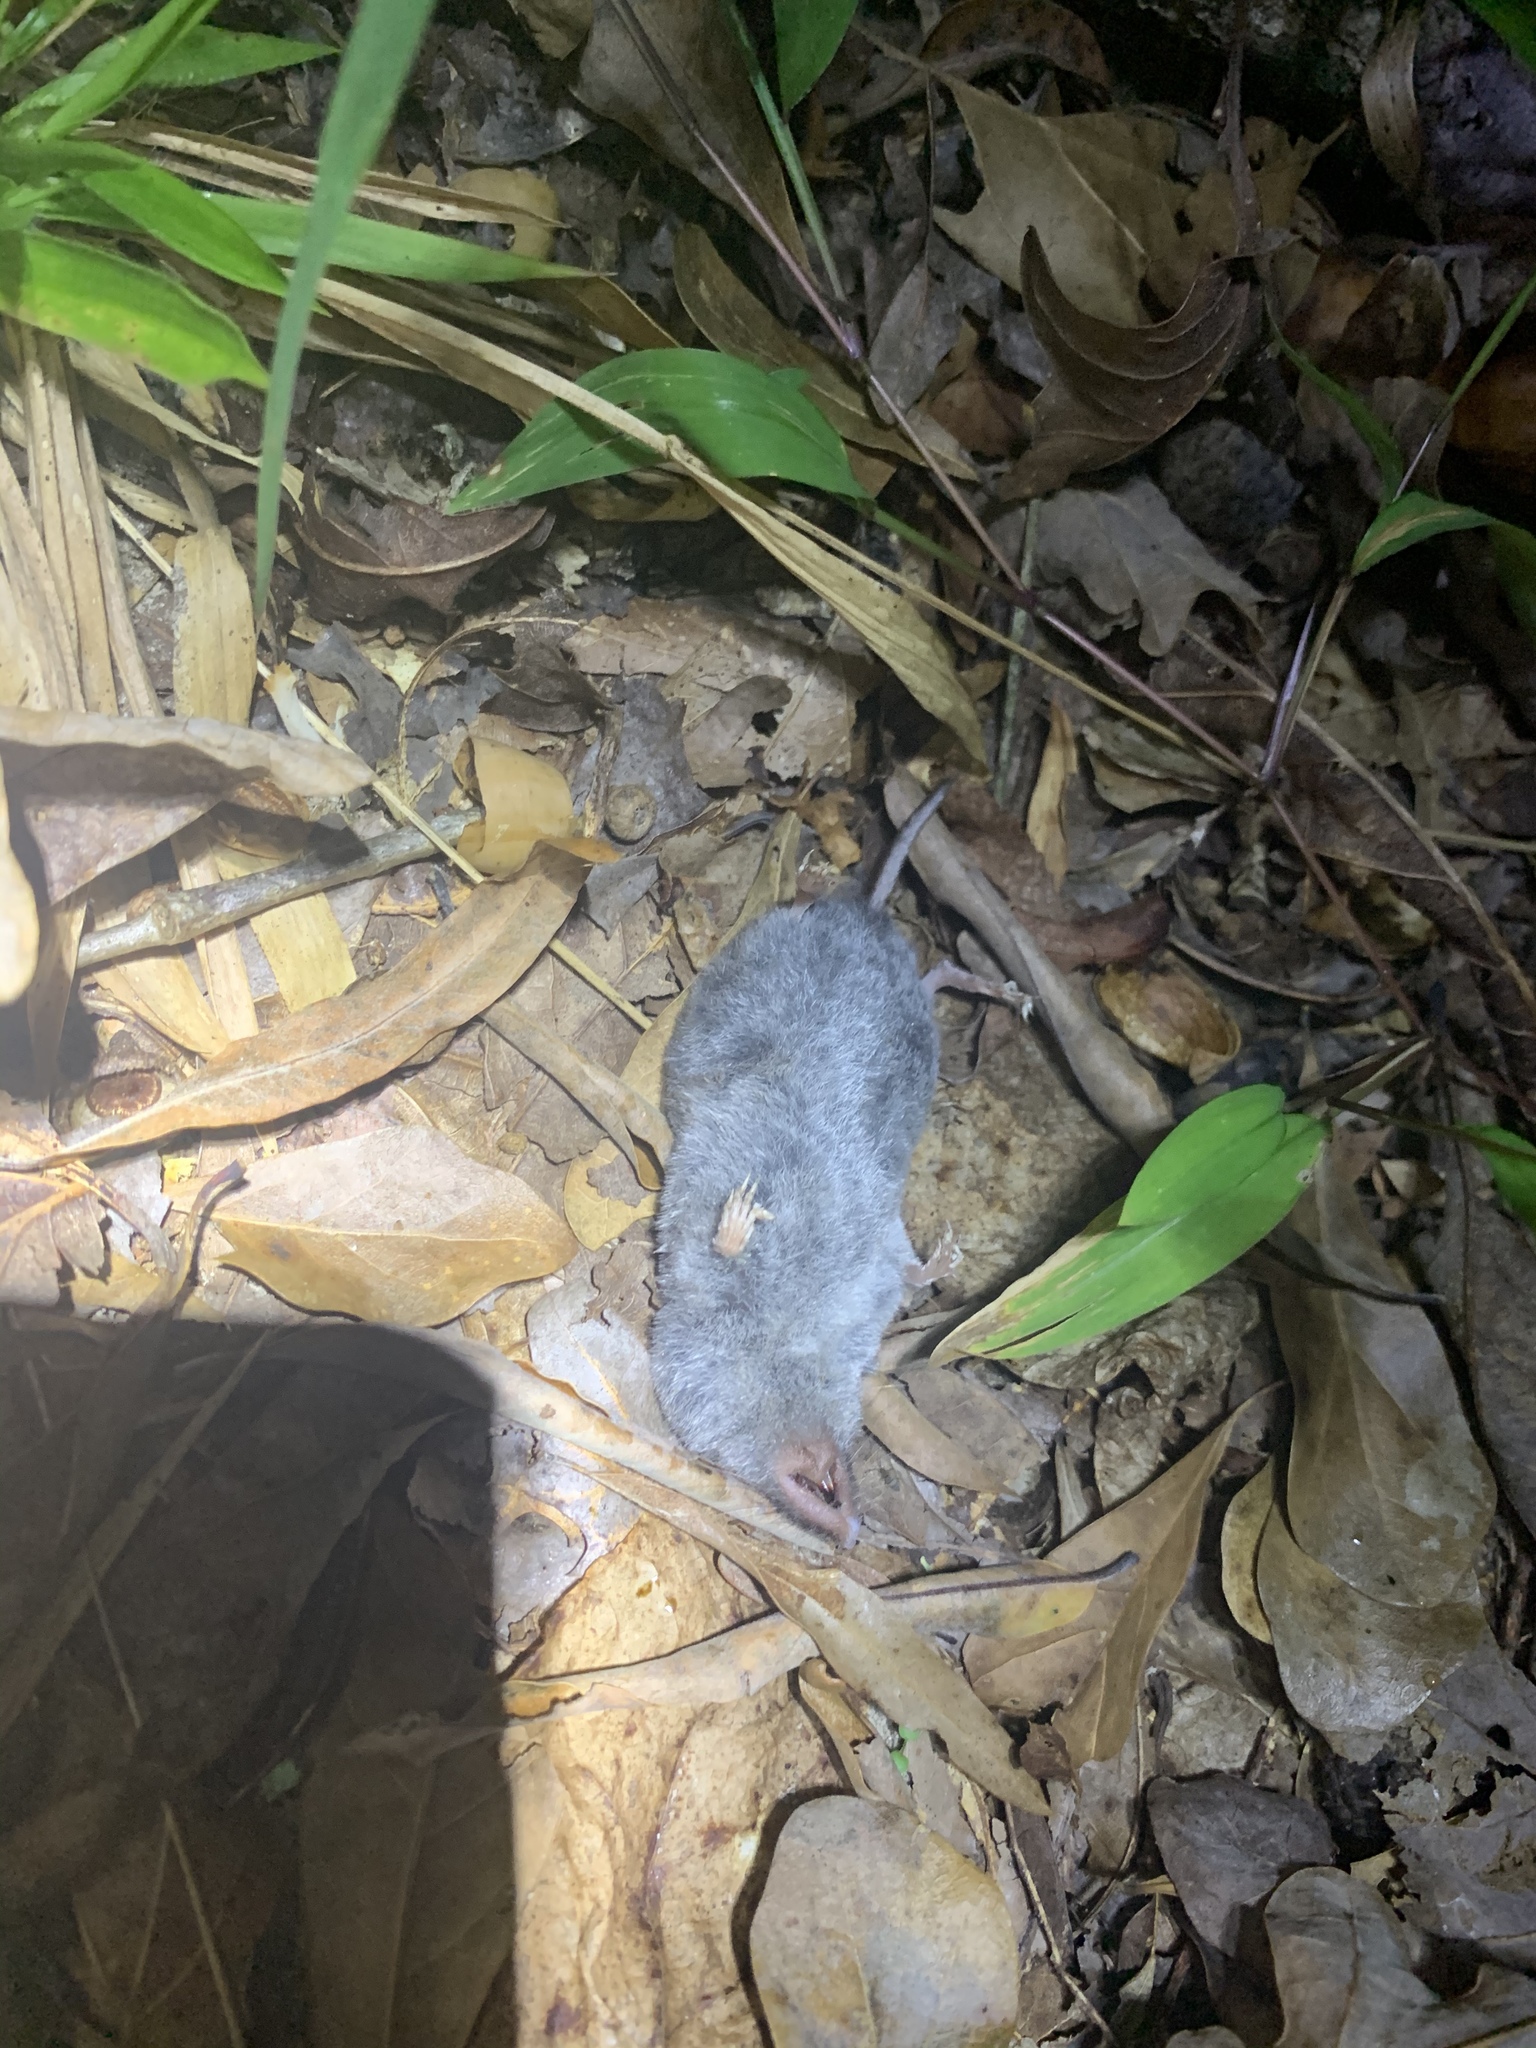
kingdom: Animalia
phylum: Chordata
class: Mammalia
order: Soricomorpha
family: Soricidae
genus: Blarina
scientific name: Blarina carolinensis
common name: Southern short-tailed shrew
